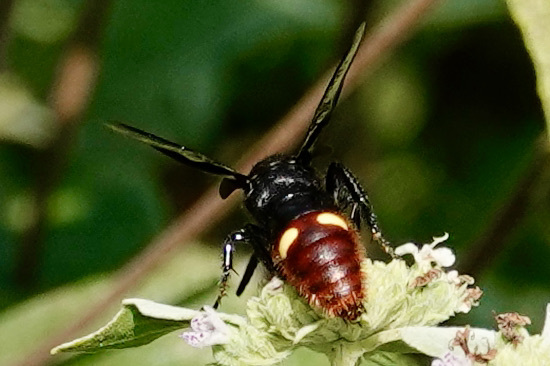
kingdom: Animalia
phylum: Arthropoda
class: Insecta
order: Hymenoptera
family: Scoliidae
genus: Scolia
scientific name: Scolia dubia
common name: Blue-winged scoliid wasp
